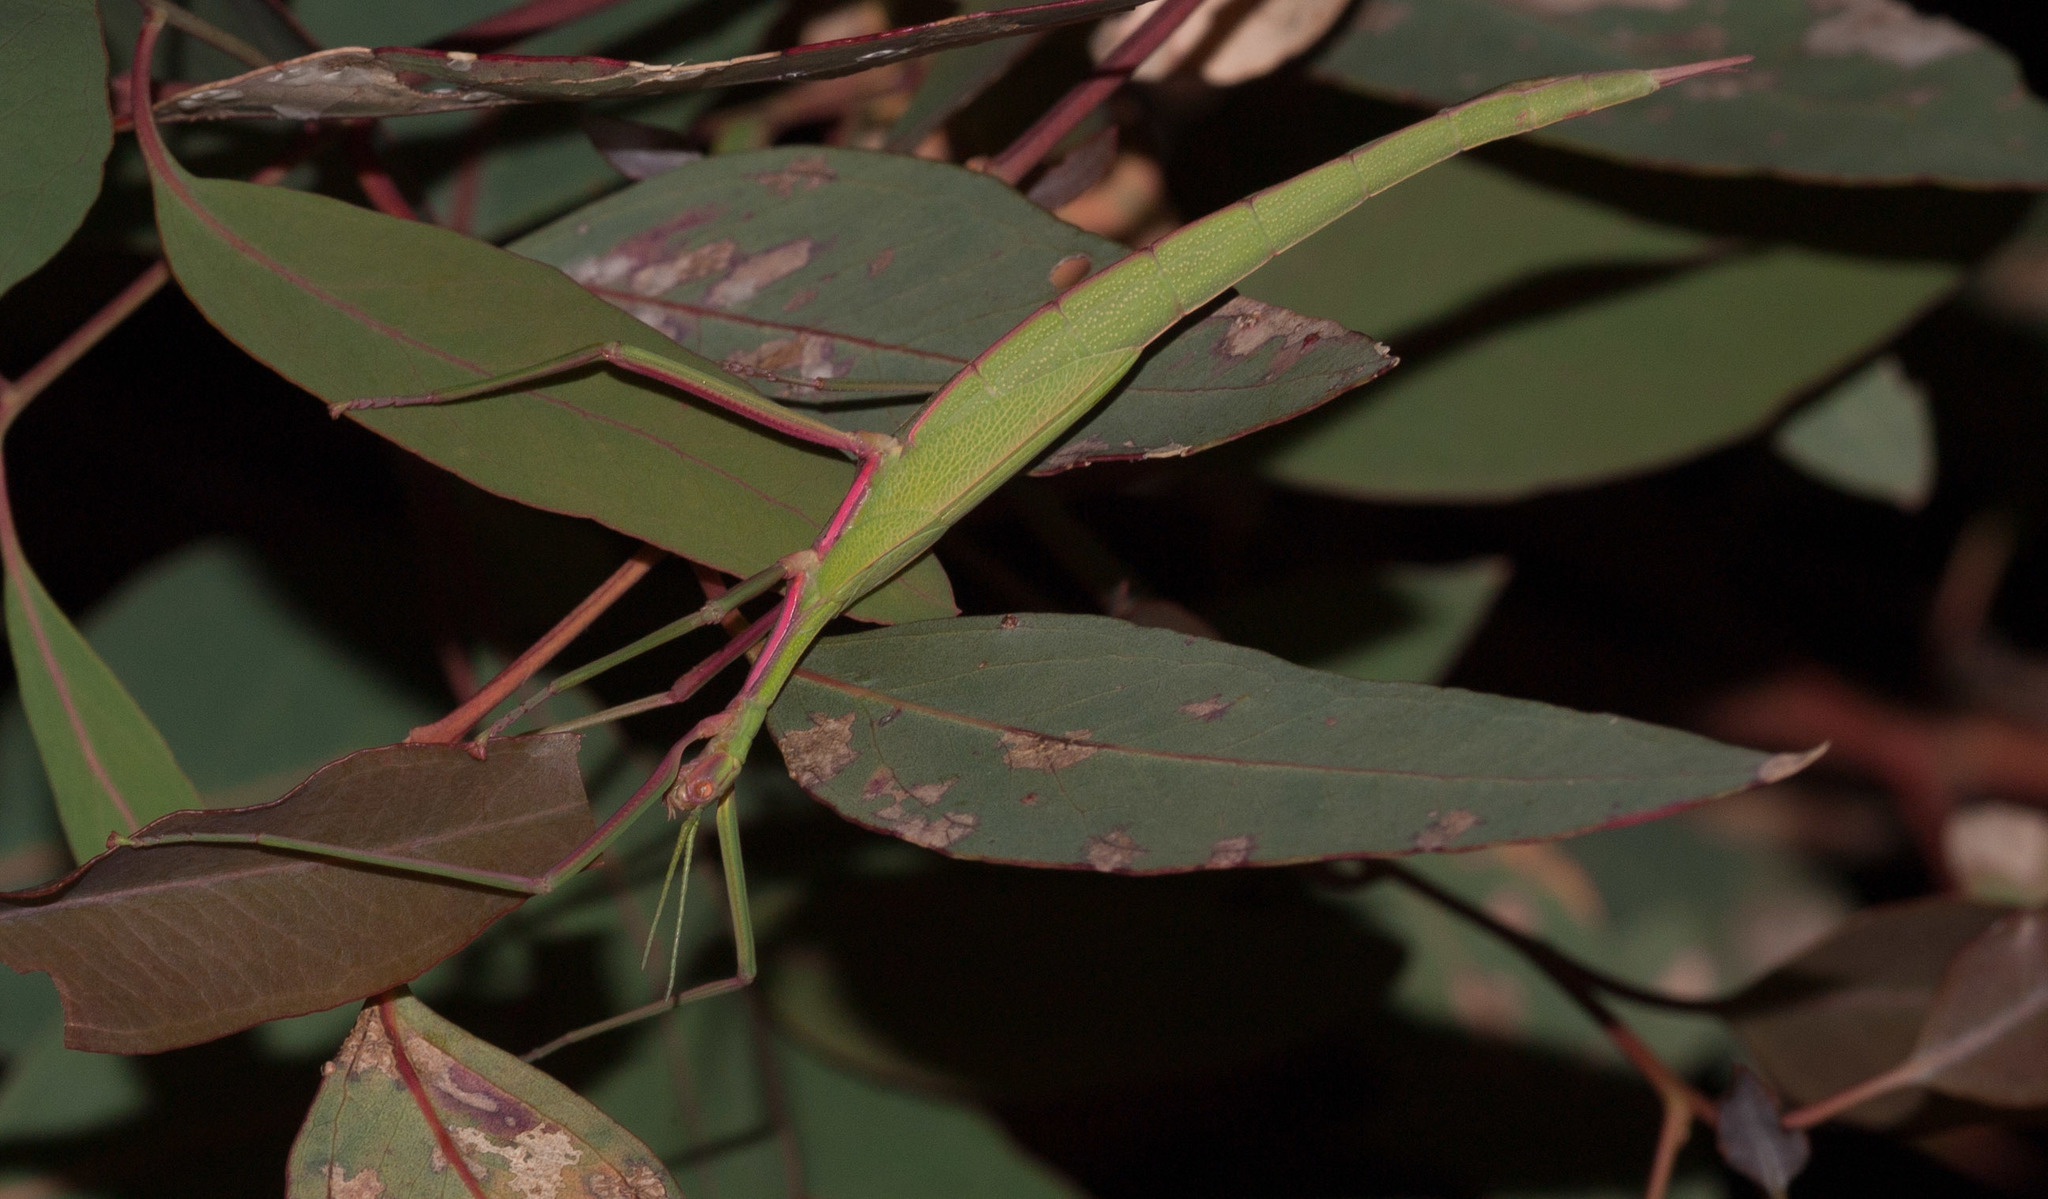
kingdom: Animalia
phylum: Arthropoda
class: Insecta
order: Phasmida
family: Phasmatidae
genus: Didymuria
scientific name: Didymuria violescens
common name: Spur-legged stick-insect
